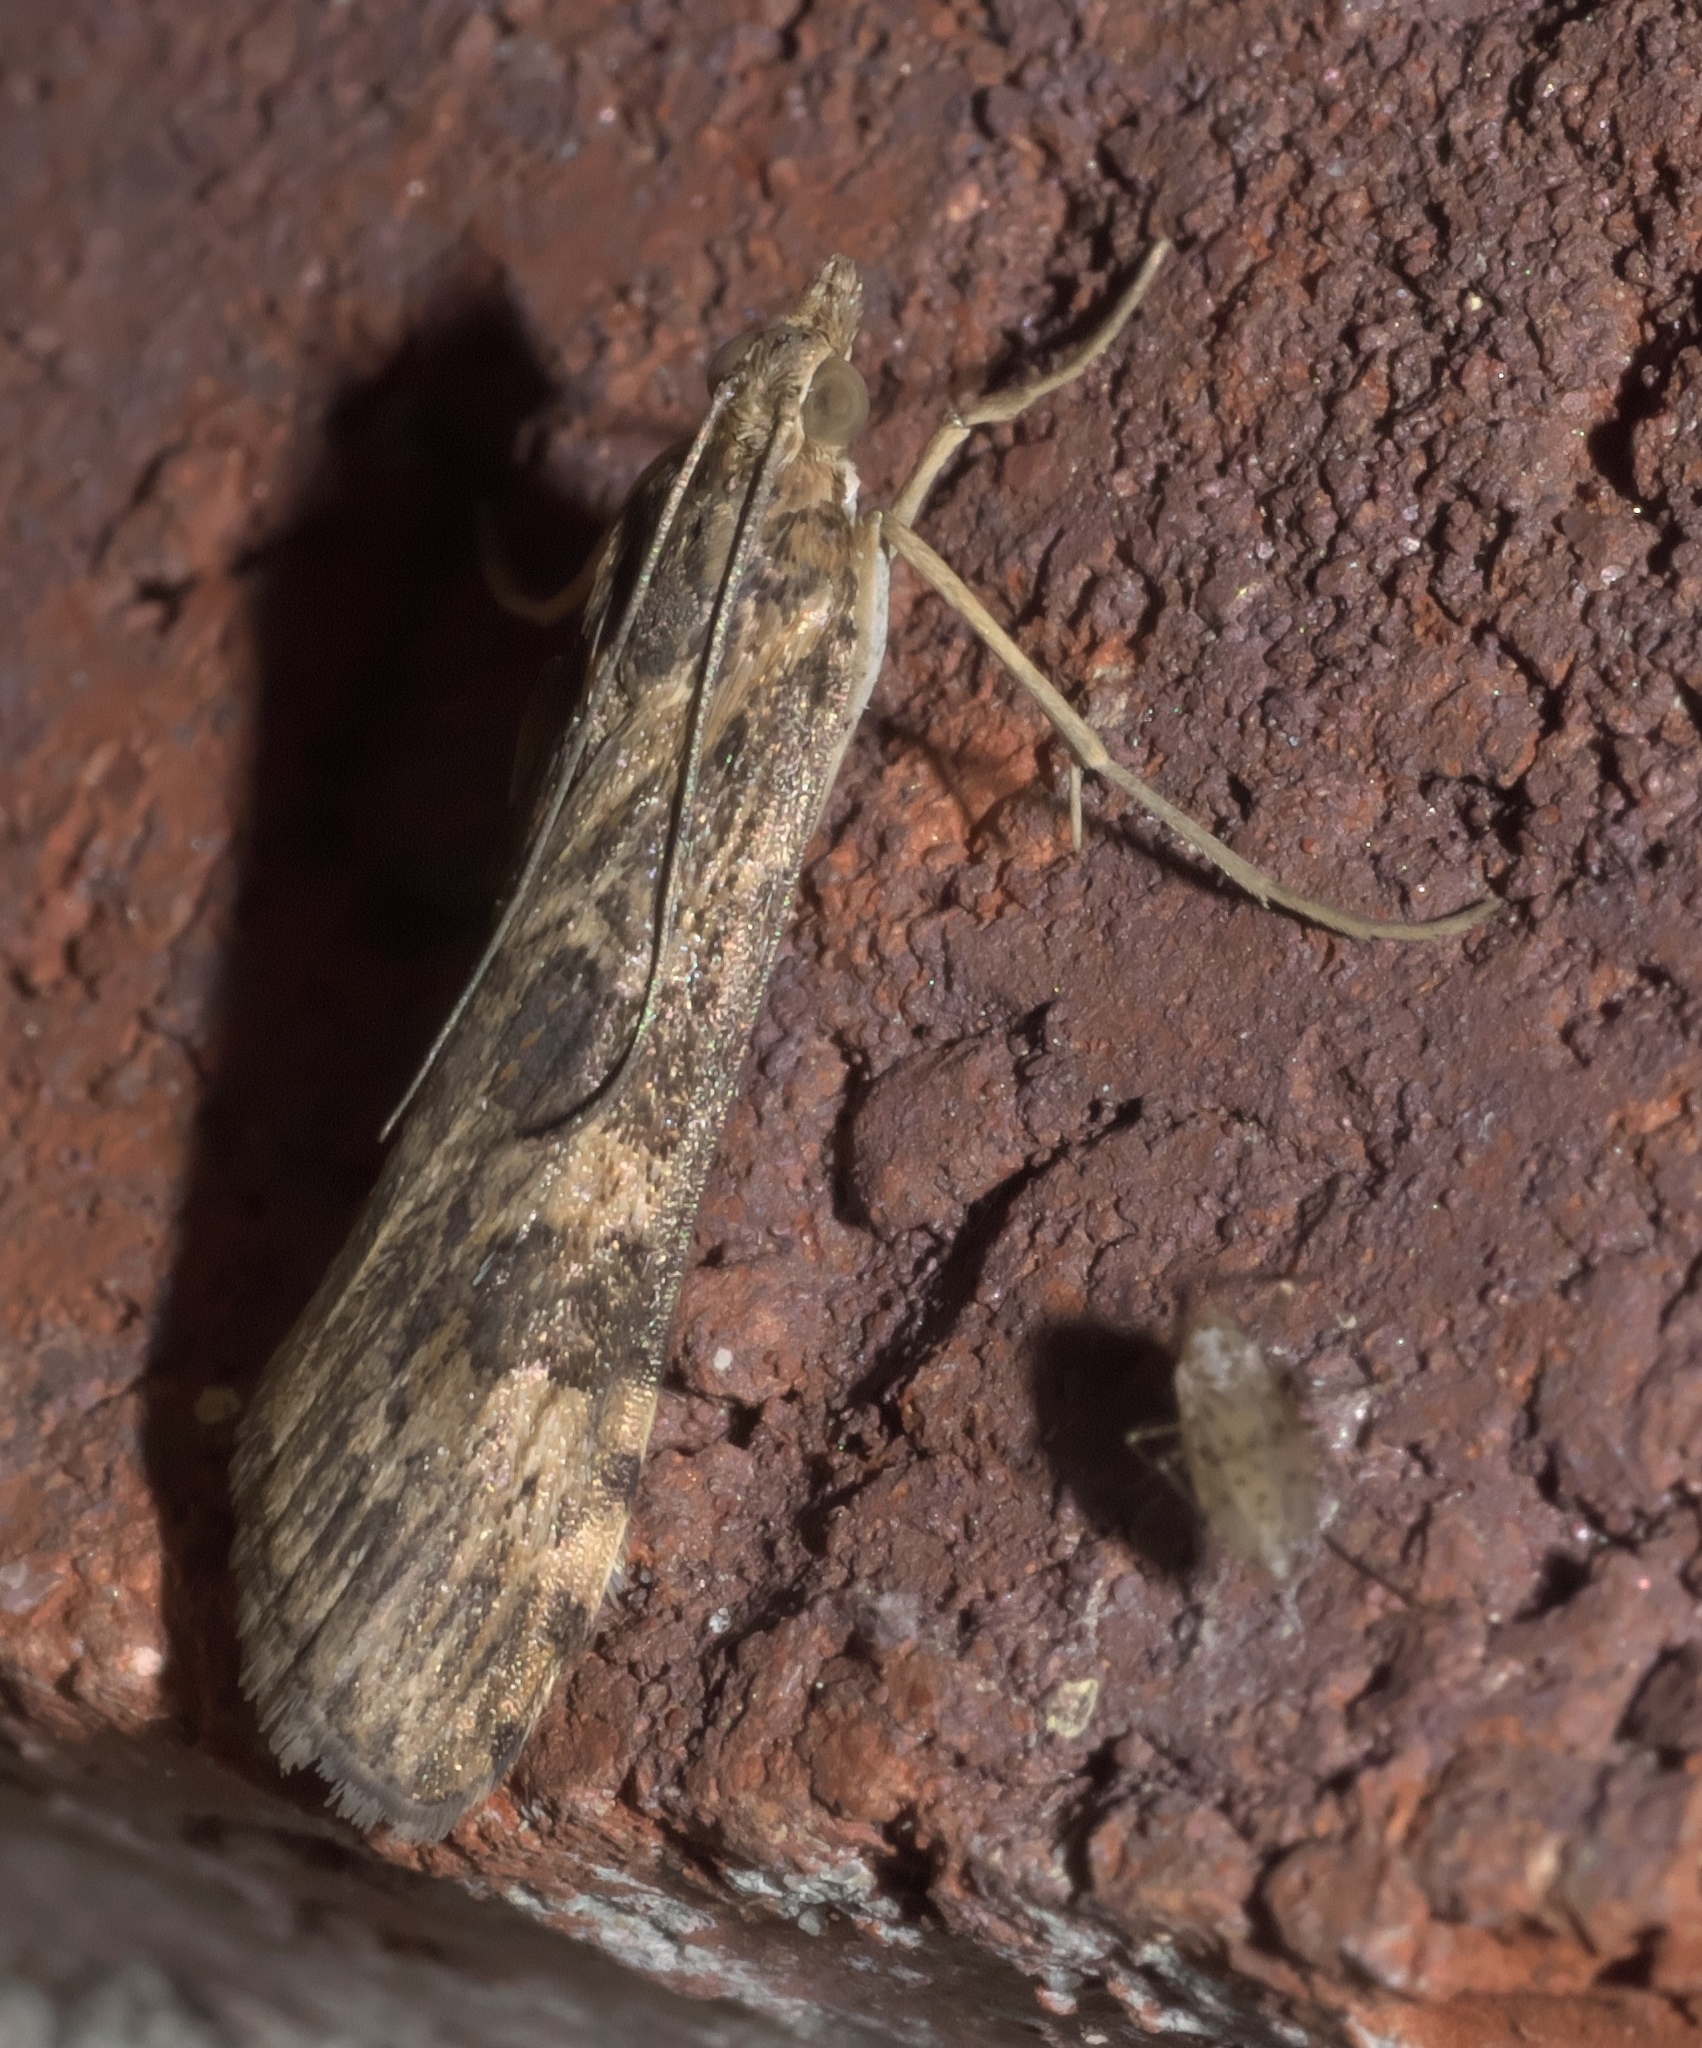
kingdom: Animalia
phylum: Arthropoda
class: Insecta
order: Lepidoptera
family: Crambidae
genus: Nomophila
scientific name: Nomophila nearctica
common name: American rush veneer
